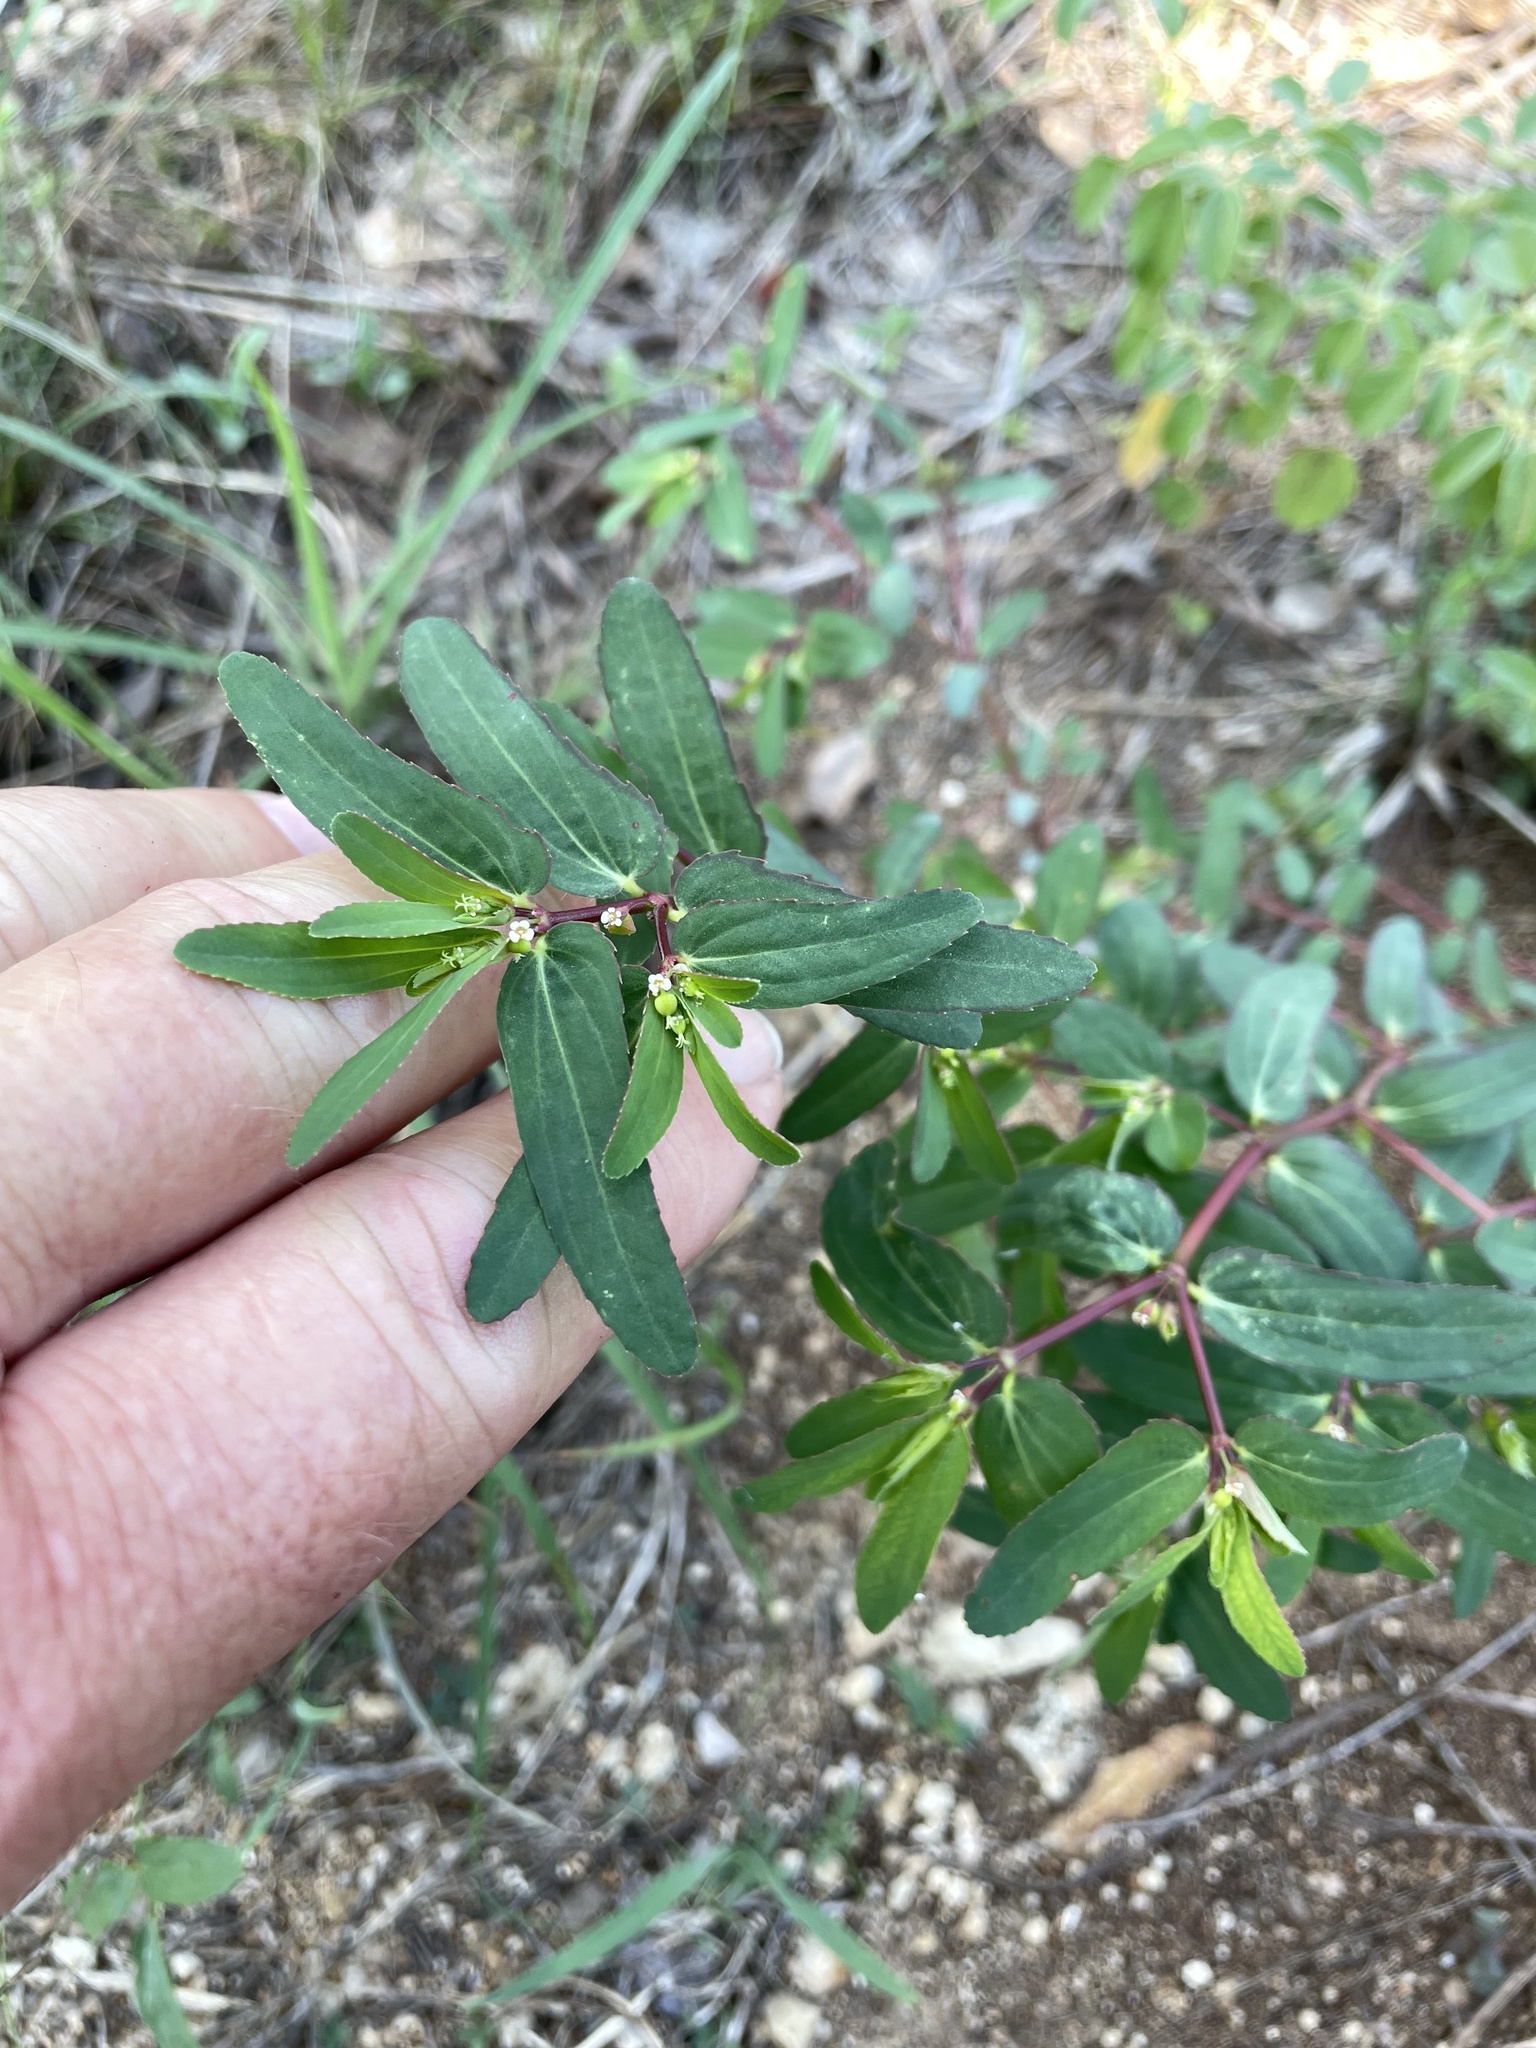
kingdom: Plantae
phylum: Tracheophyta
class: Magnoliopsida
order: Malpighiales
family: Euphorbiaceae
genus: Euphorbia
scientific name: Euphorbia nutans
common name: Eyebane
